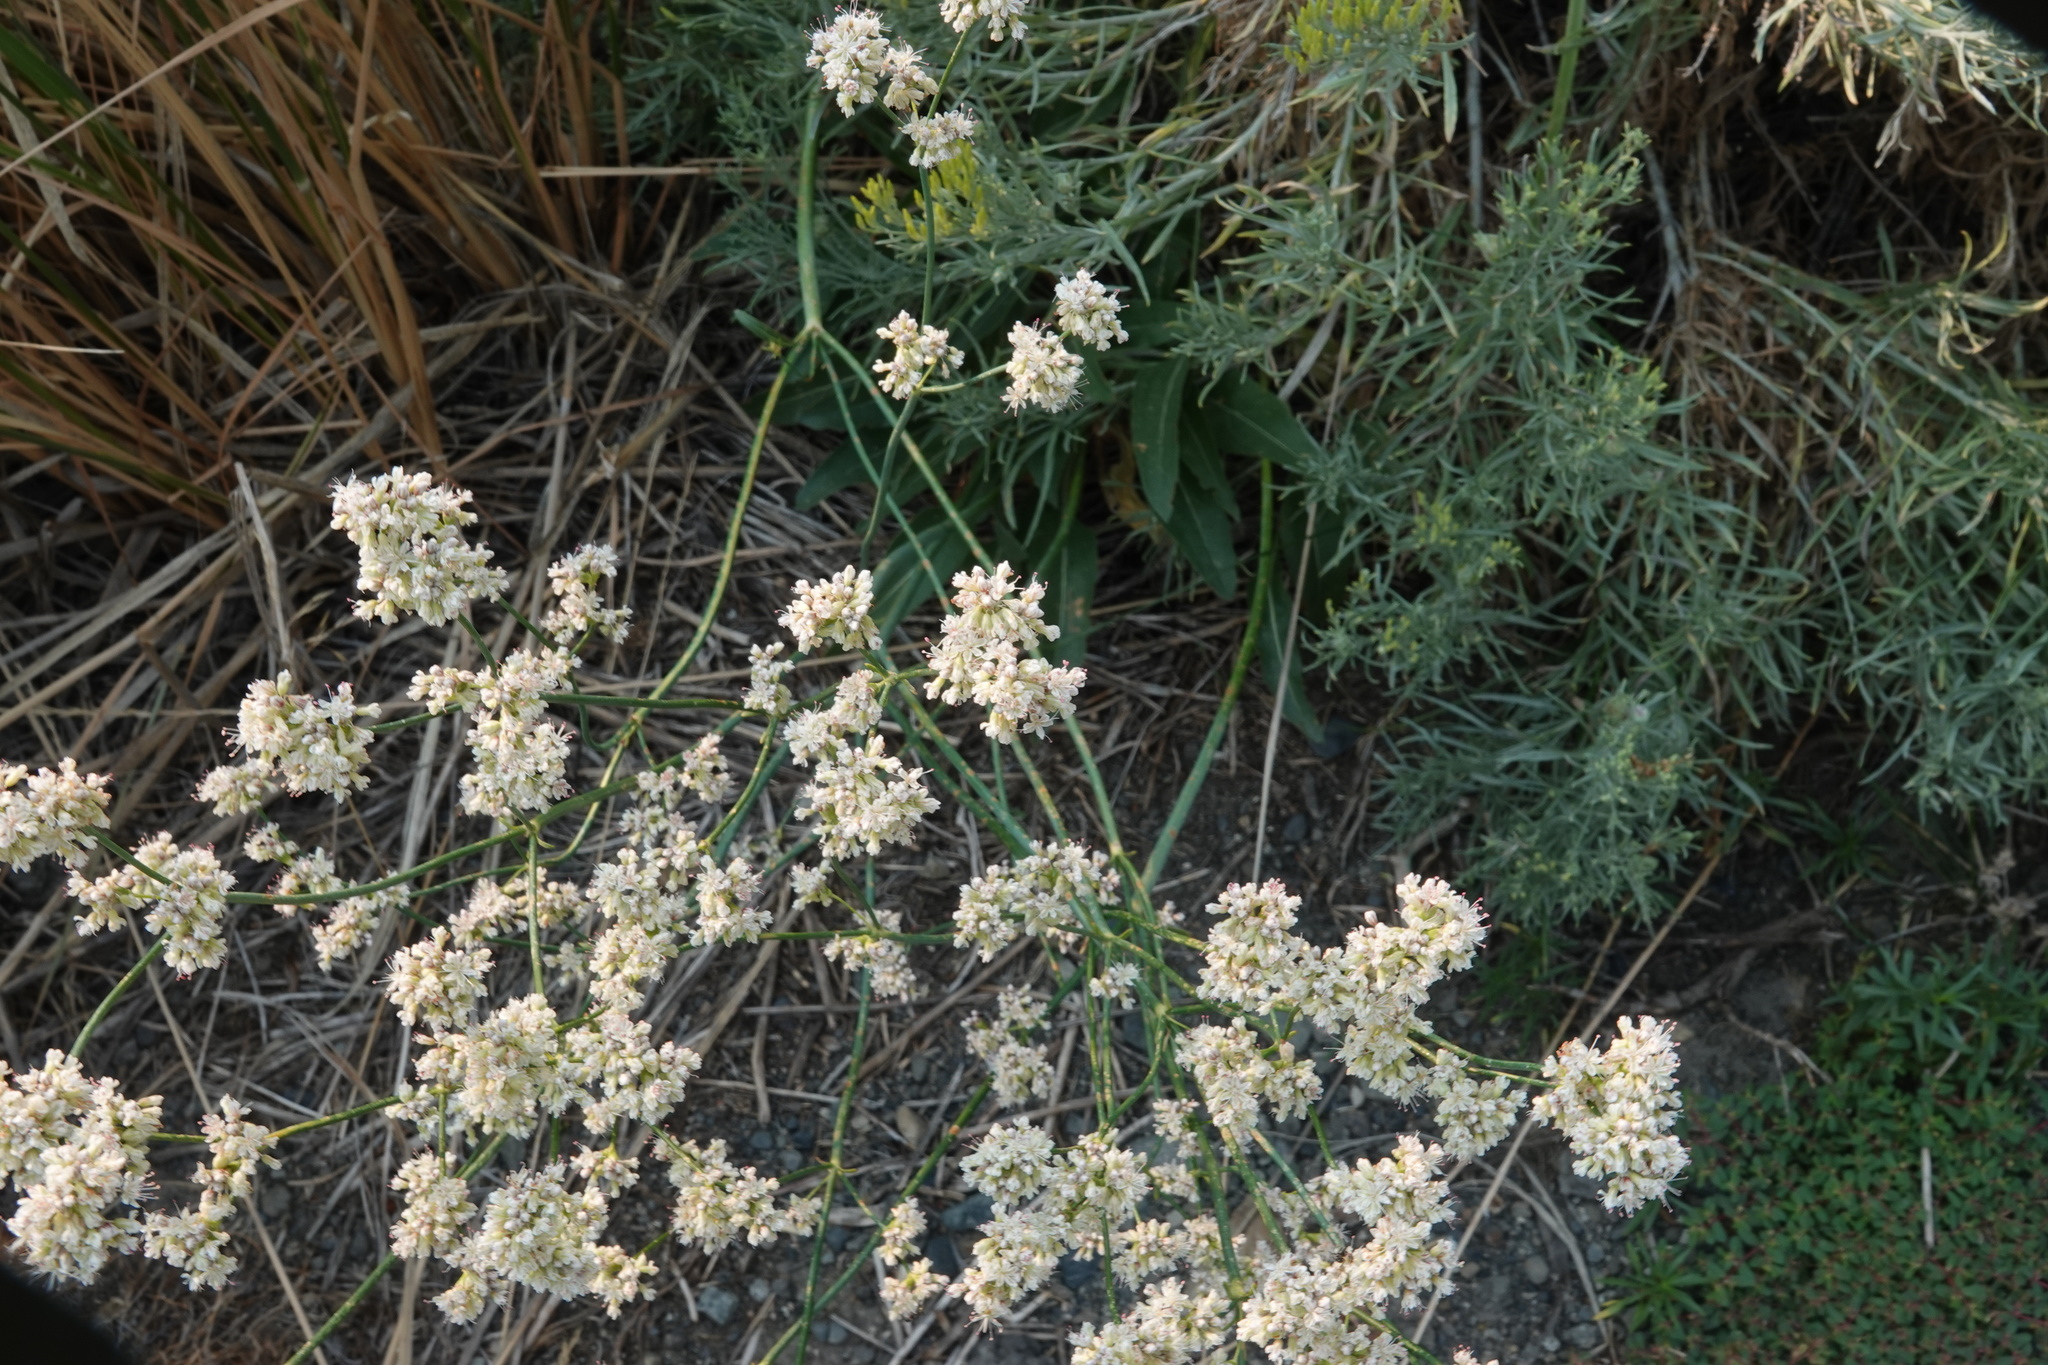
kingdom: Plantae
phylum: Tracheophyta
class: Magnoliopsida
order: Caryophyllales
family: Polygonaceae
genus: Eriogonum
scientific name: Eriogonum elatum
